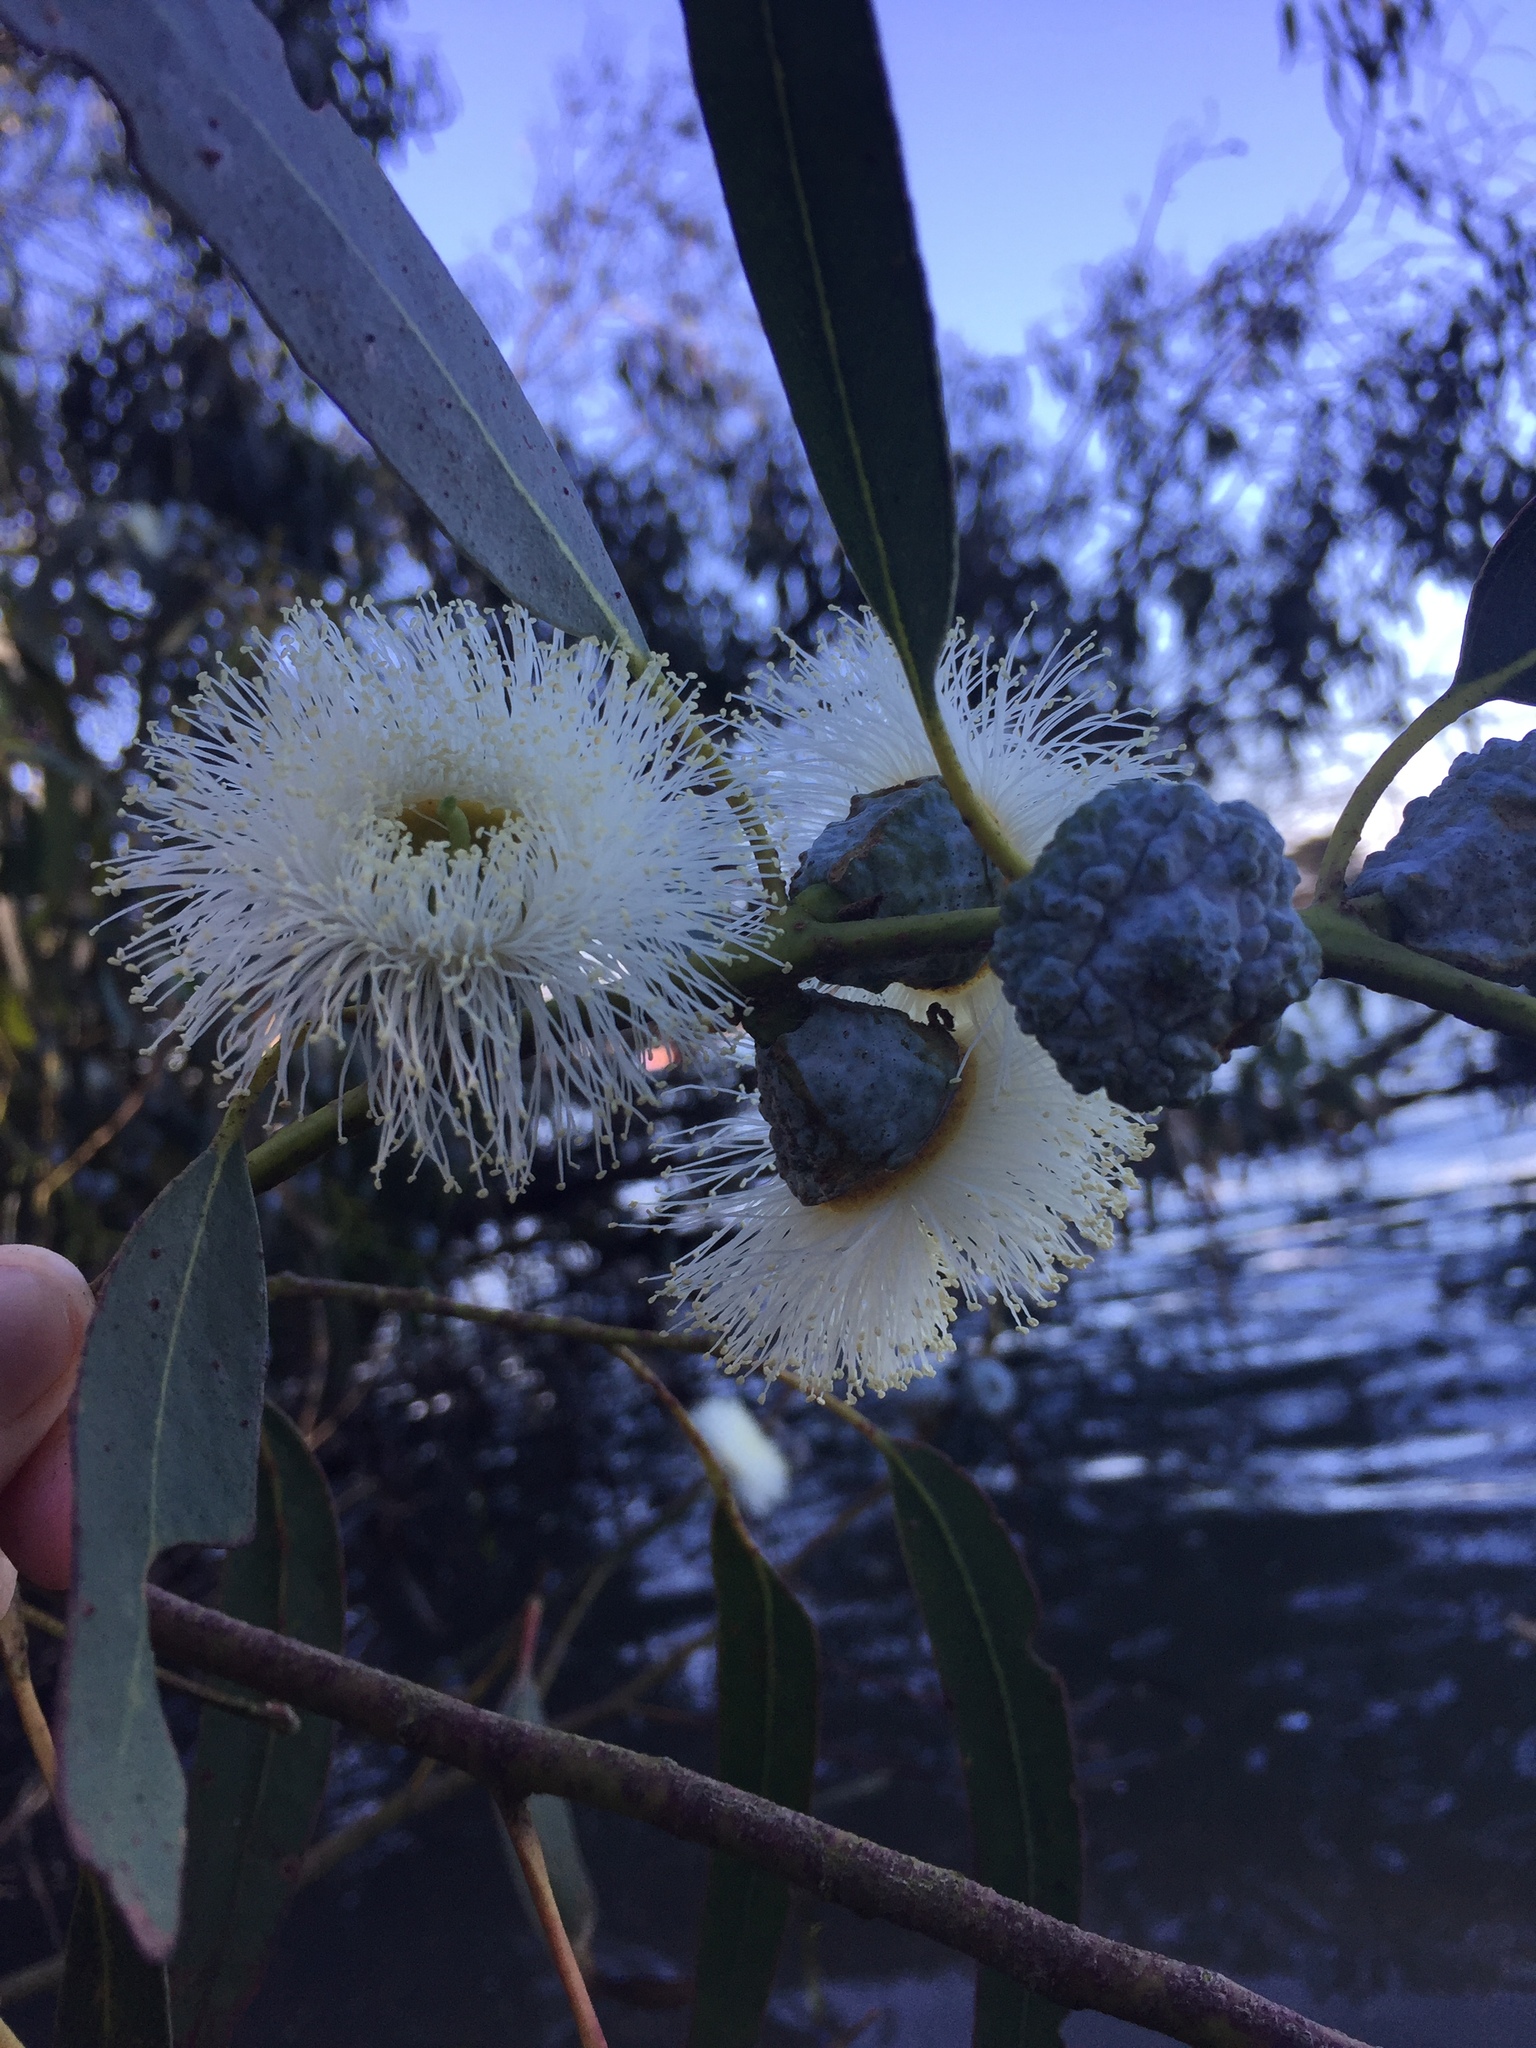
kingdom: Plantae
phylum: Tracheophyta
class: Magnoliopsida
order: Myrtales
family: Myrtaceae
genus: Eucalyptus
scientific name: Eucalyptus globulus
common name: Southern blue-gum
